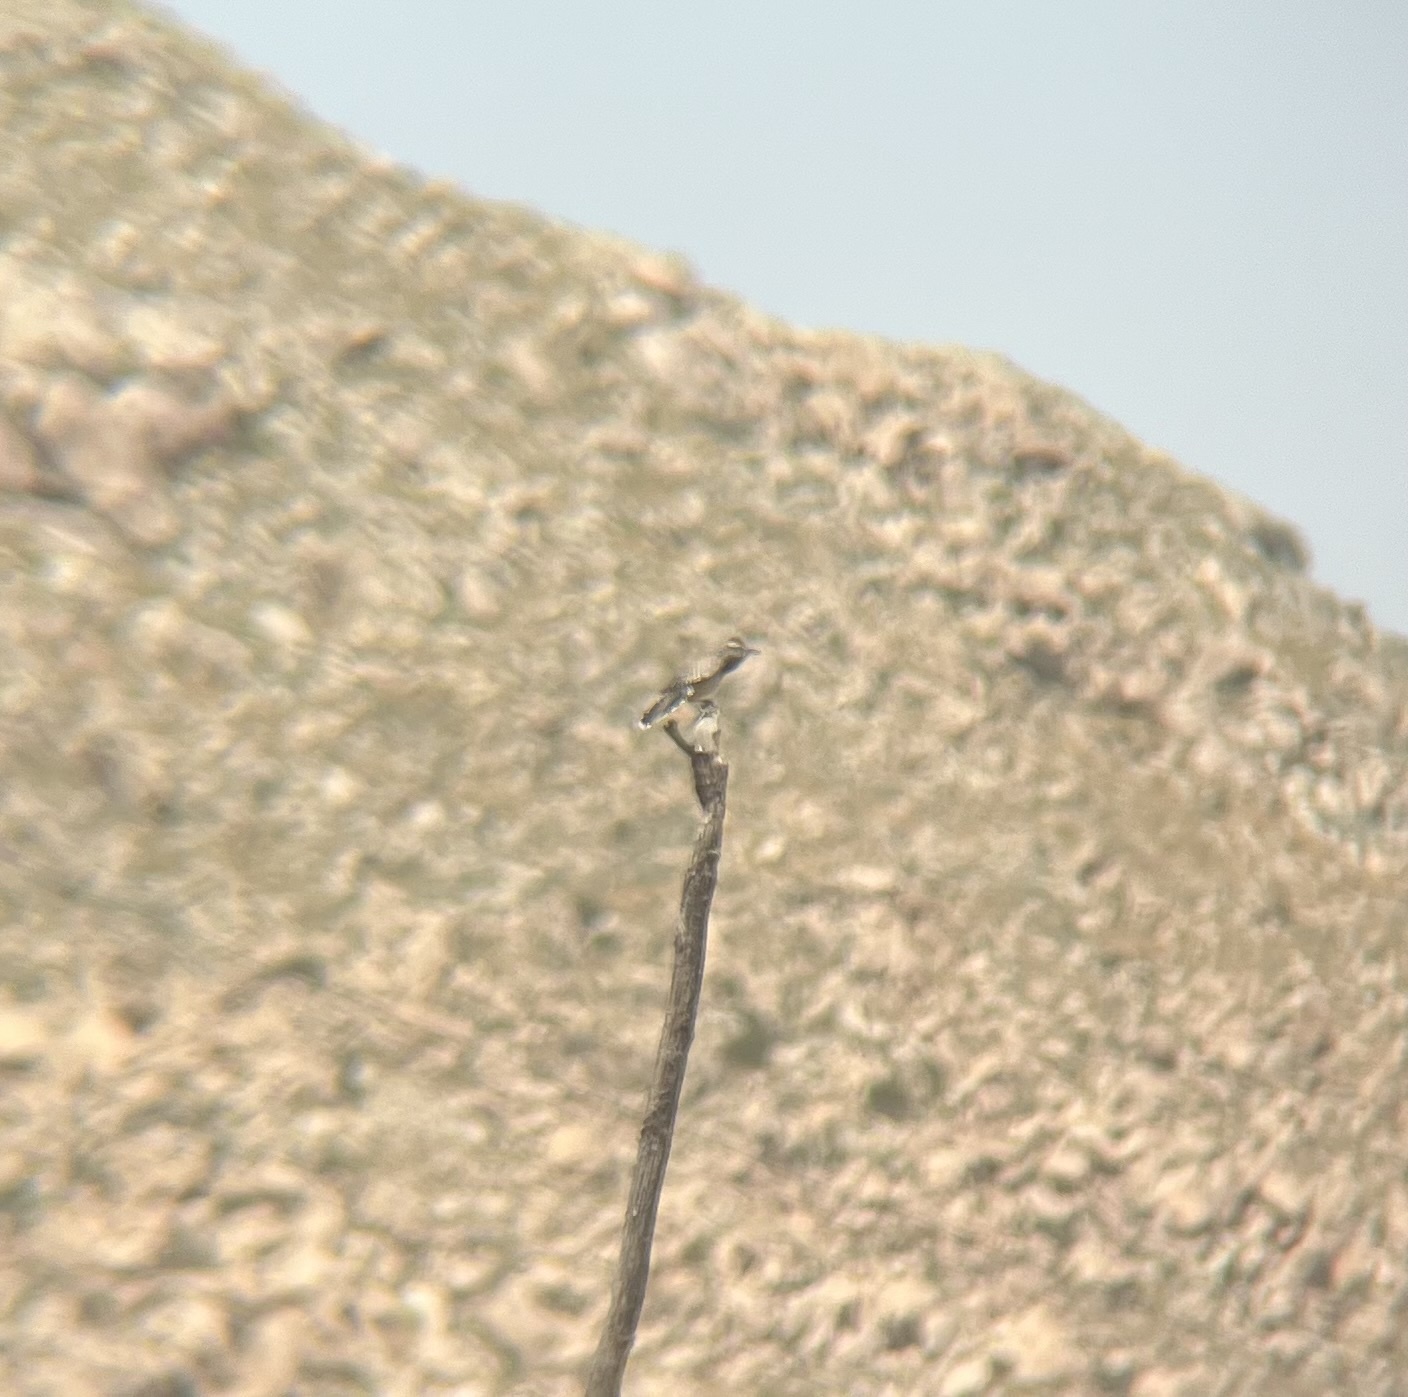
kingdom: Animalia
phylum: Chordata
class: Aves
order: Passeriformes
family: Troglodytidae
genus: Campylorhynchus
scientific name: Campylorhynchus brunneicapillus
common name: Cactus wren
